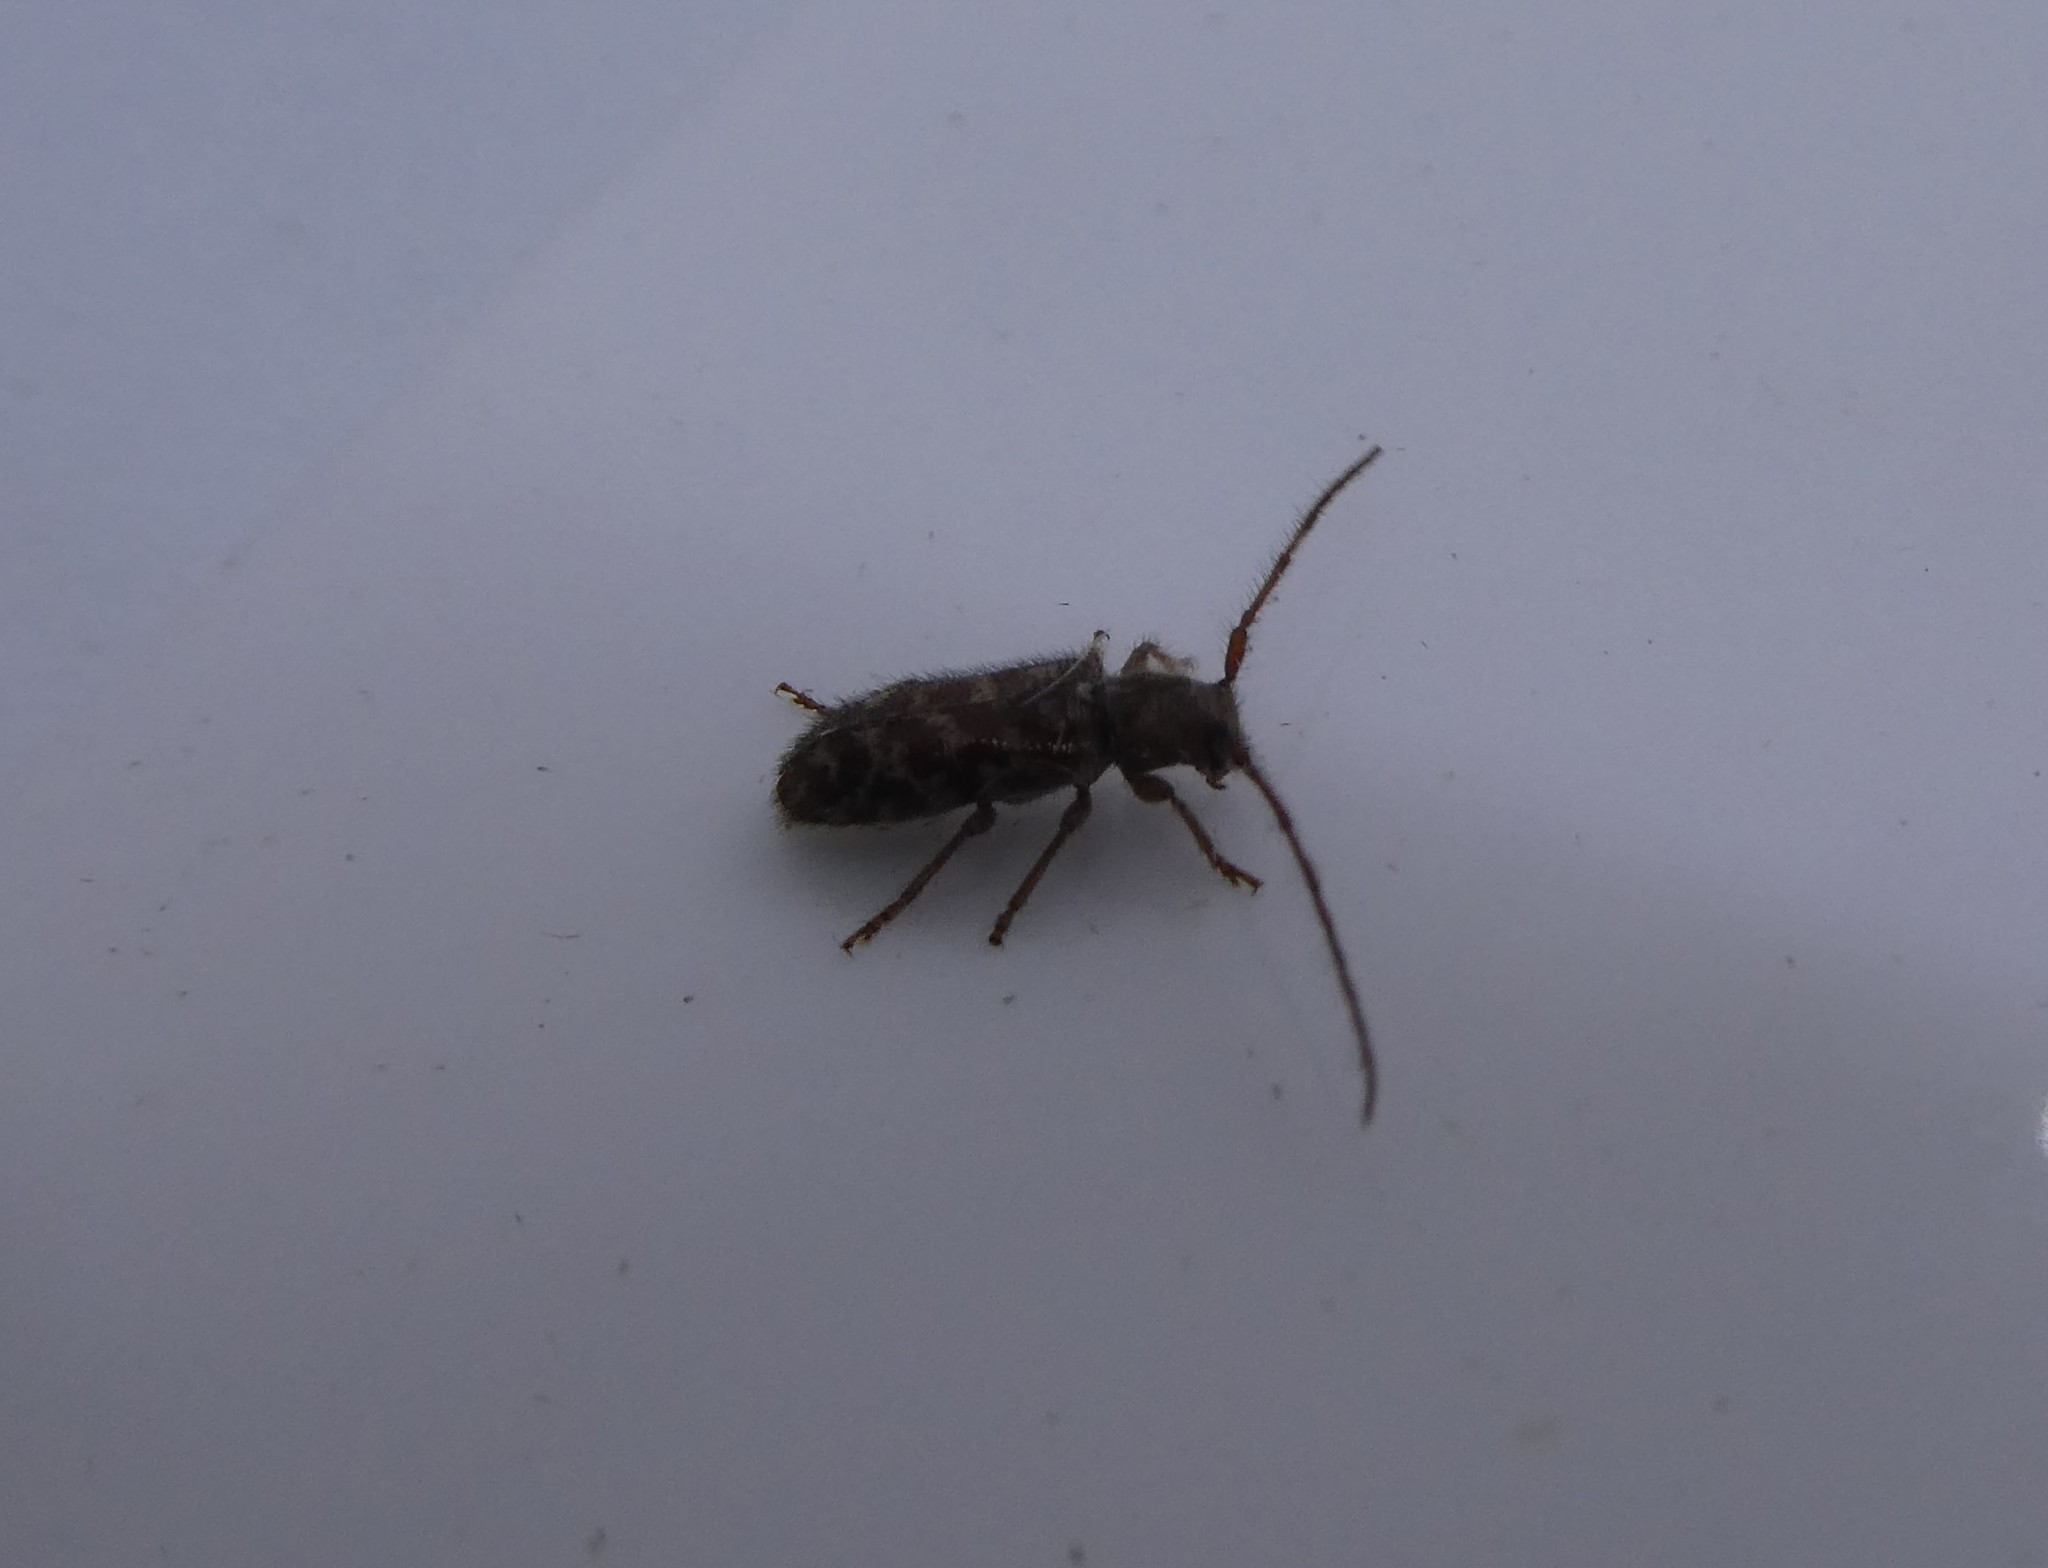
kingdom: Animalia
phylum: Arthropoda
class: Insecta
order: Coleoptera
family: Cerambycidae
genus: Eupogonius
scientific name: Eupogonius tomentosus
